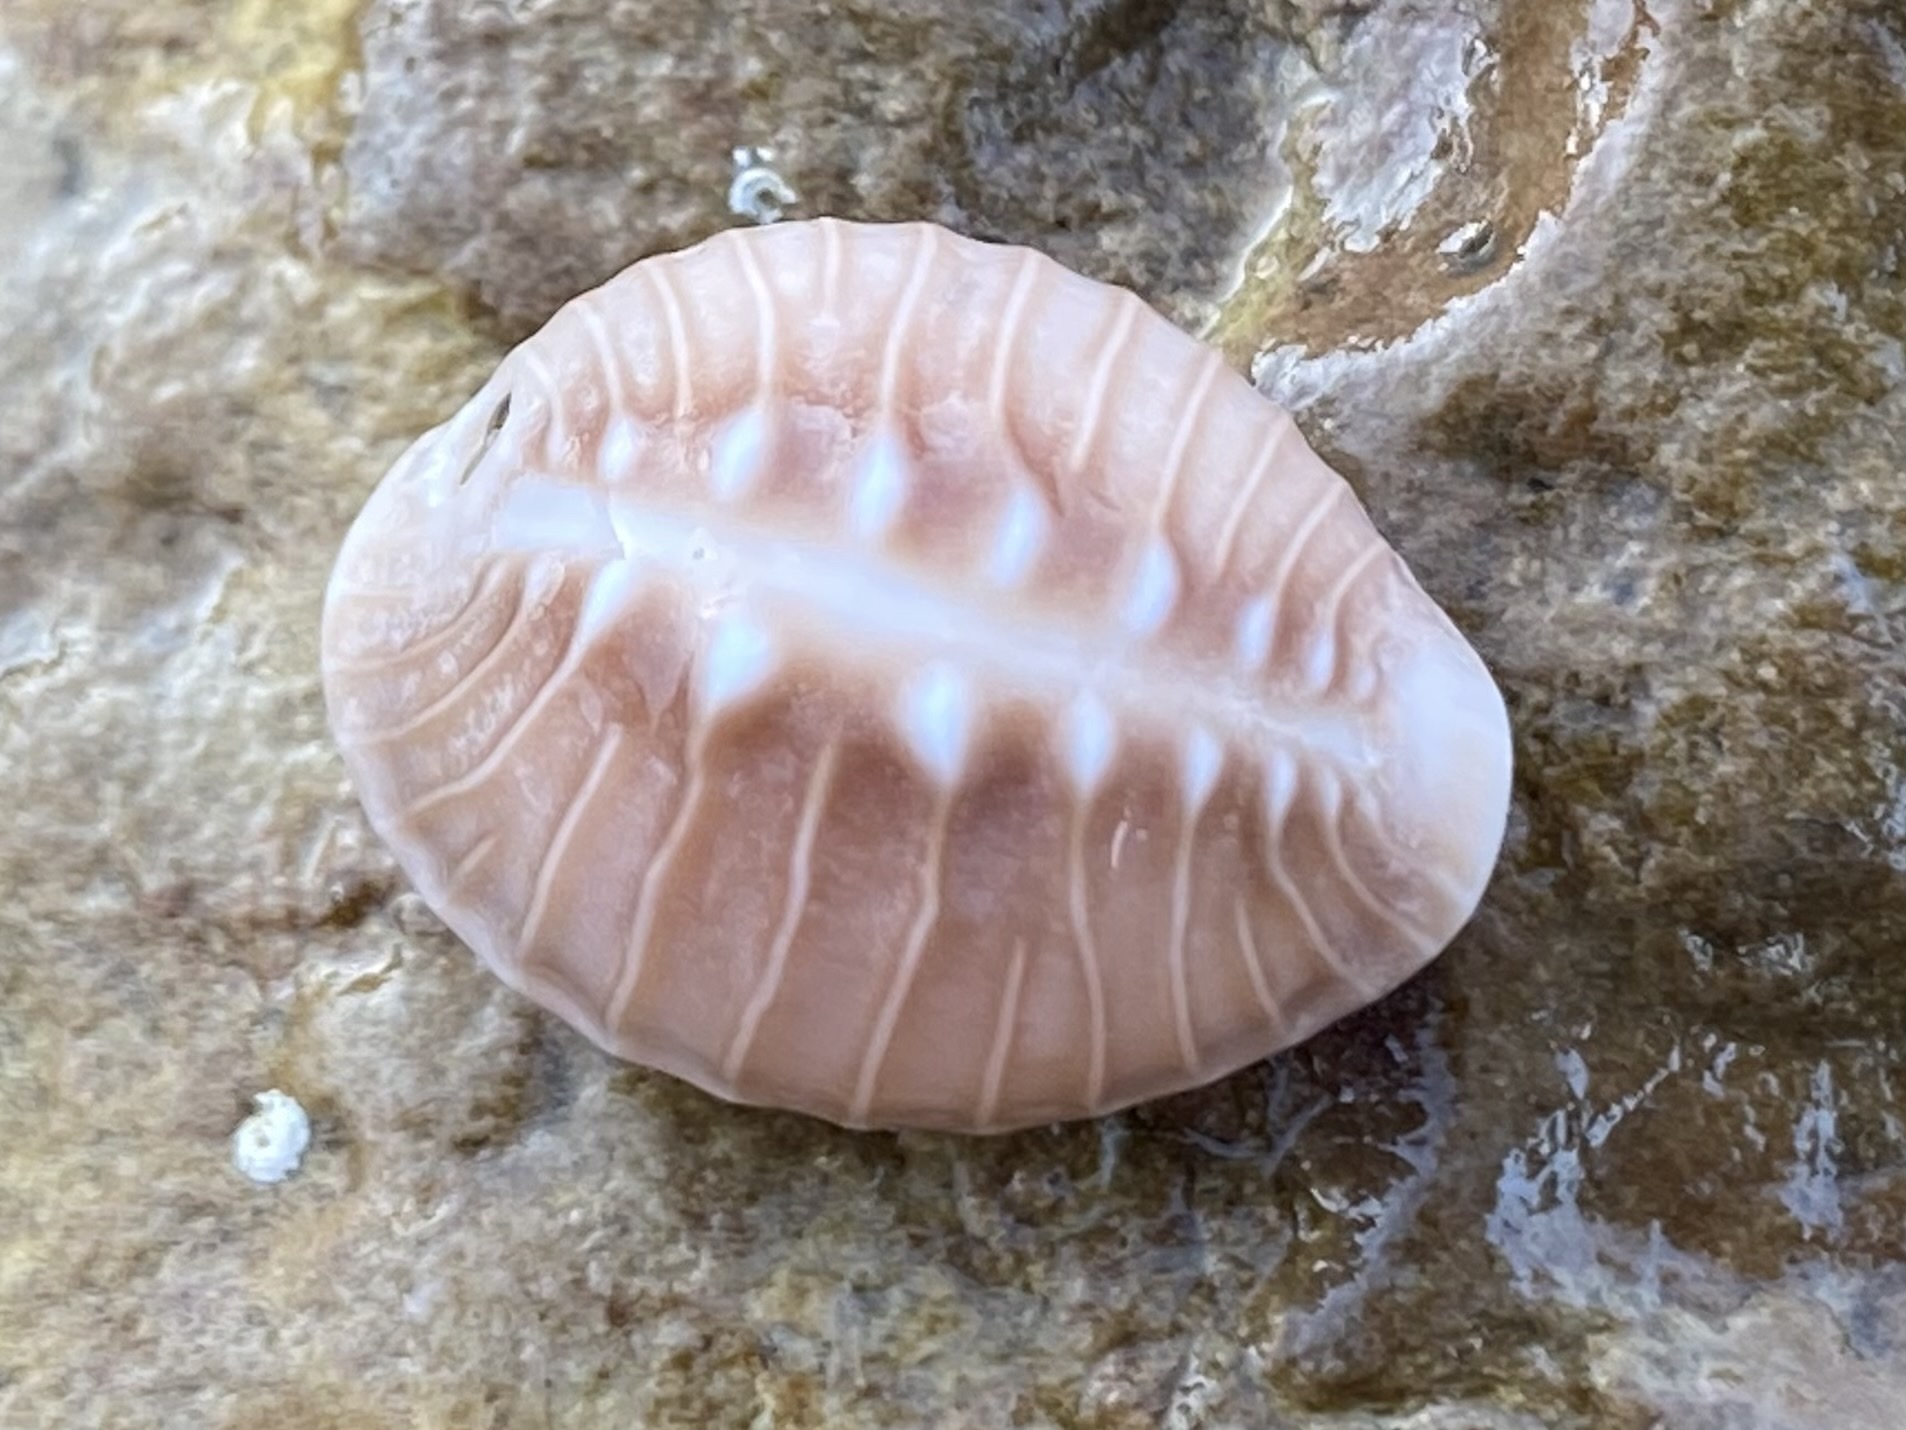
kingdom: Animalia
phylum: Mollusca
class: Gastropoda
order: Littorinimorpha
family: Triviidae
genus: Pusula
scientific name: Pusula solandri
